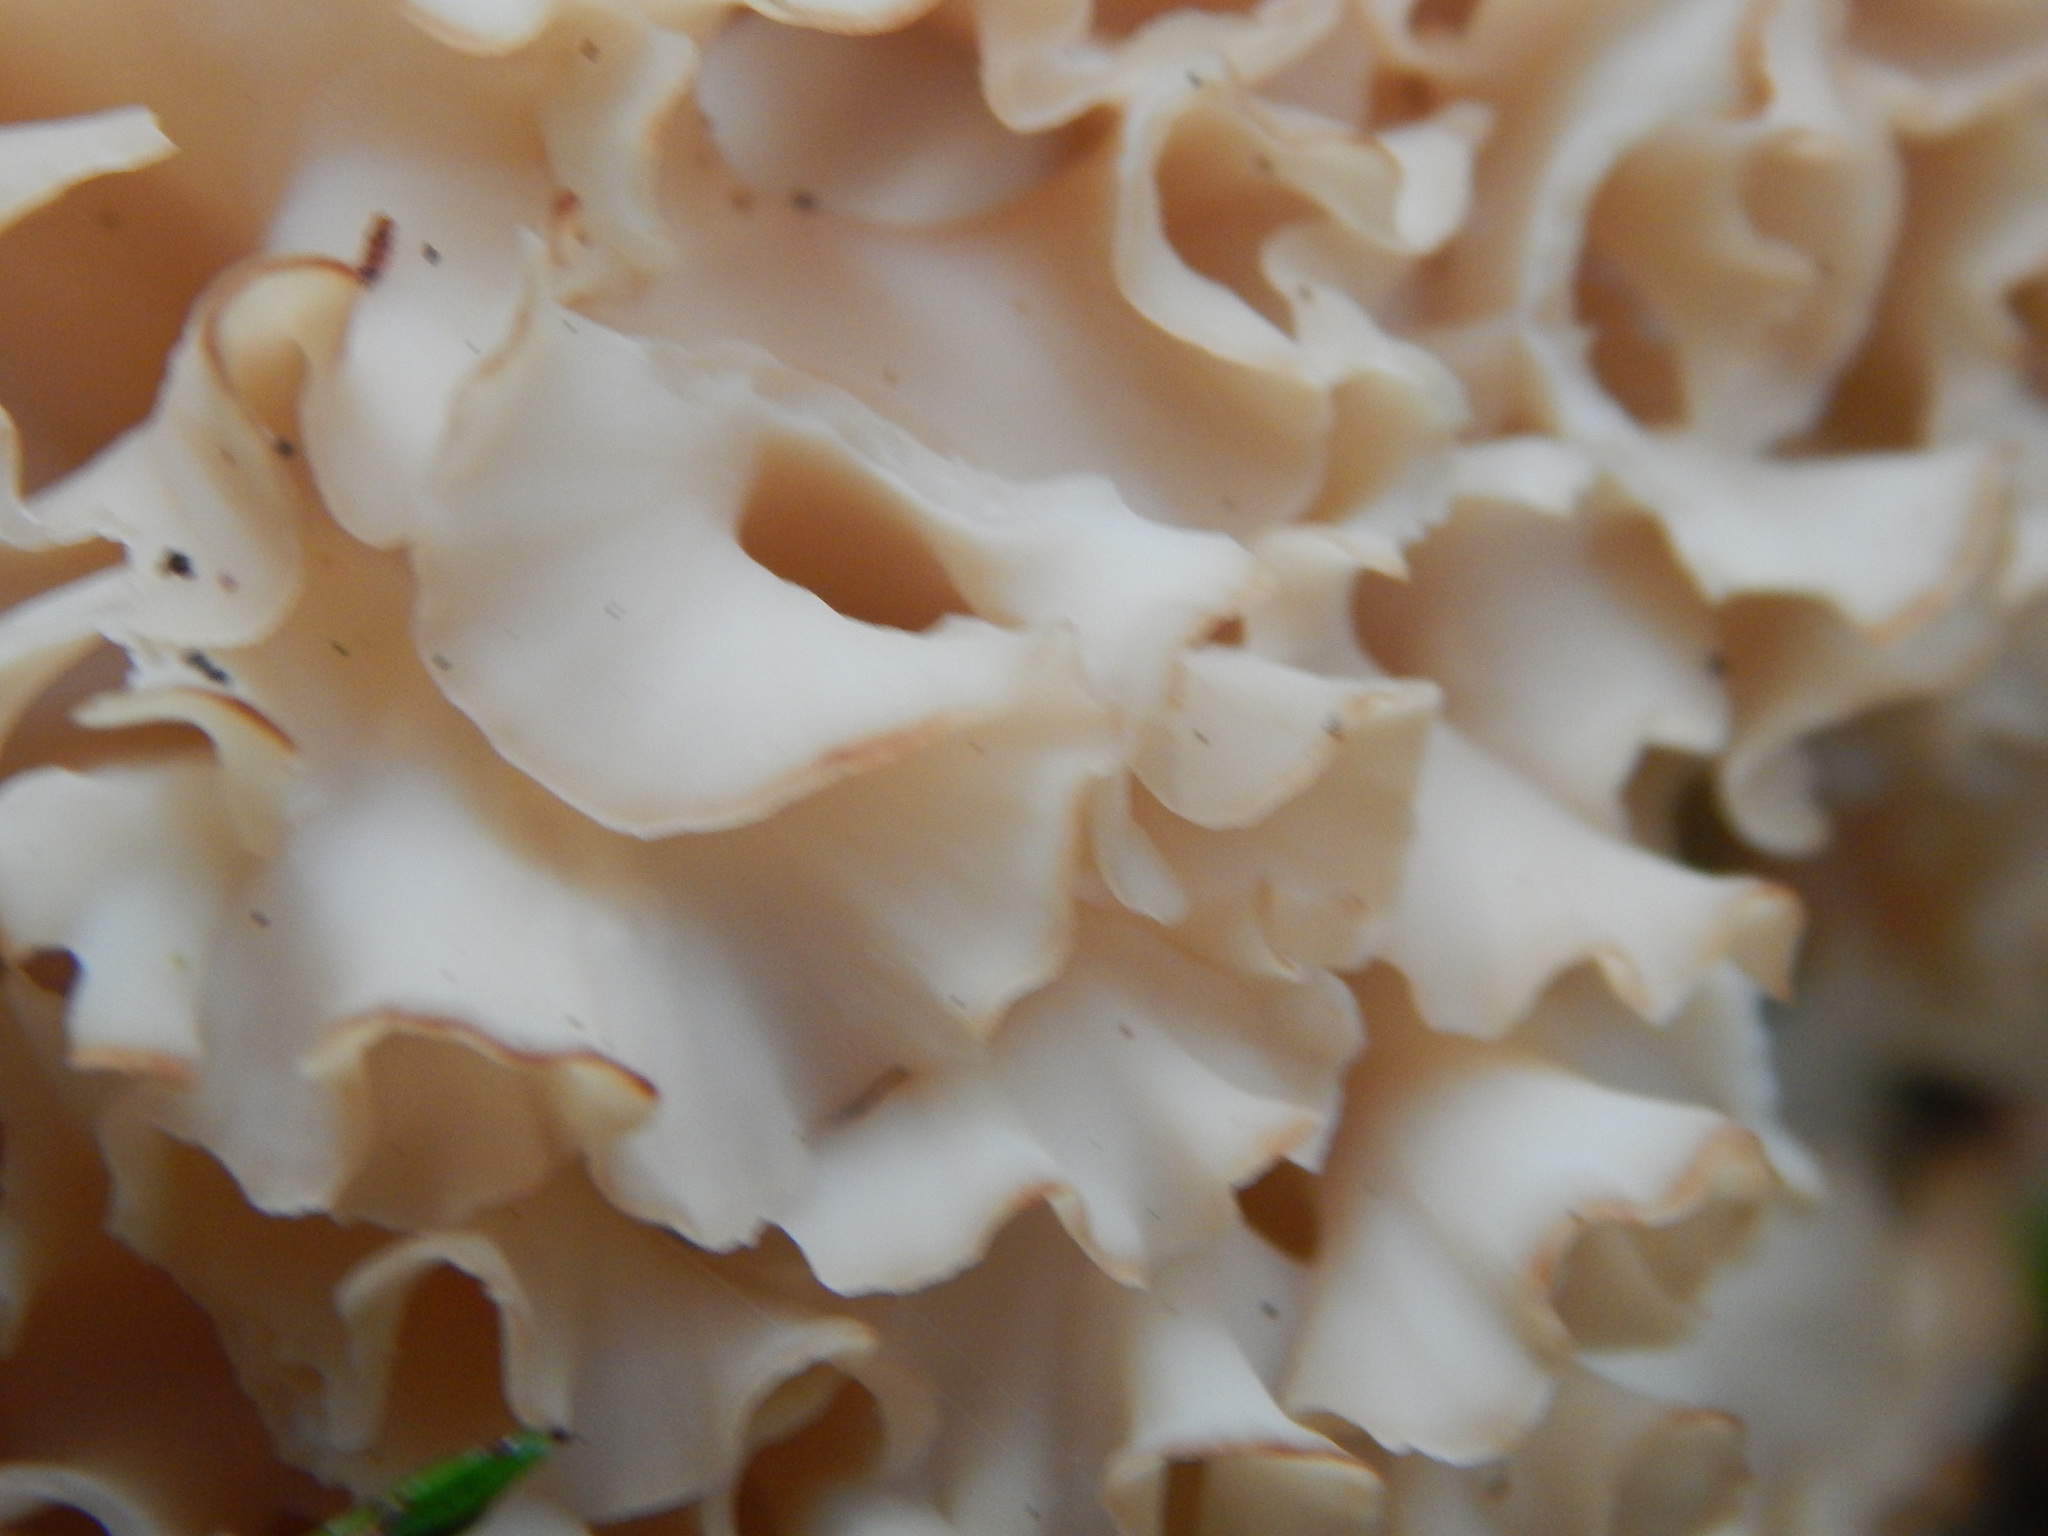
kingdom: Fungi
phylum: Basidiomycota
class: Agaricomycetes
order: Polyporales
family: Sparassidaceae
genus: Sparassis
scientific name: Sparassis crispa
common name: Brain fungus
